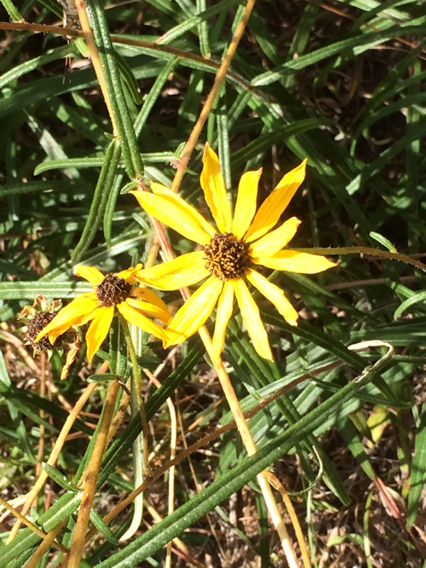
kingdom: Plantae
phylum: Tracheophyta
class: Magnoliopsida
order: Asterales
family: Asteraceae
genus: Helianthus
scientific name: Helianthus angustifolius
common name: Swamp sunflower
